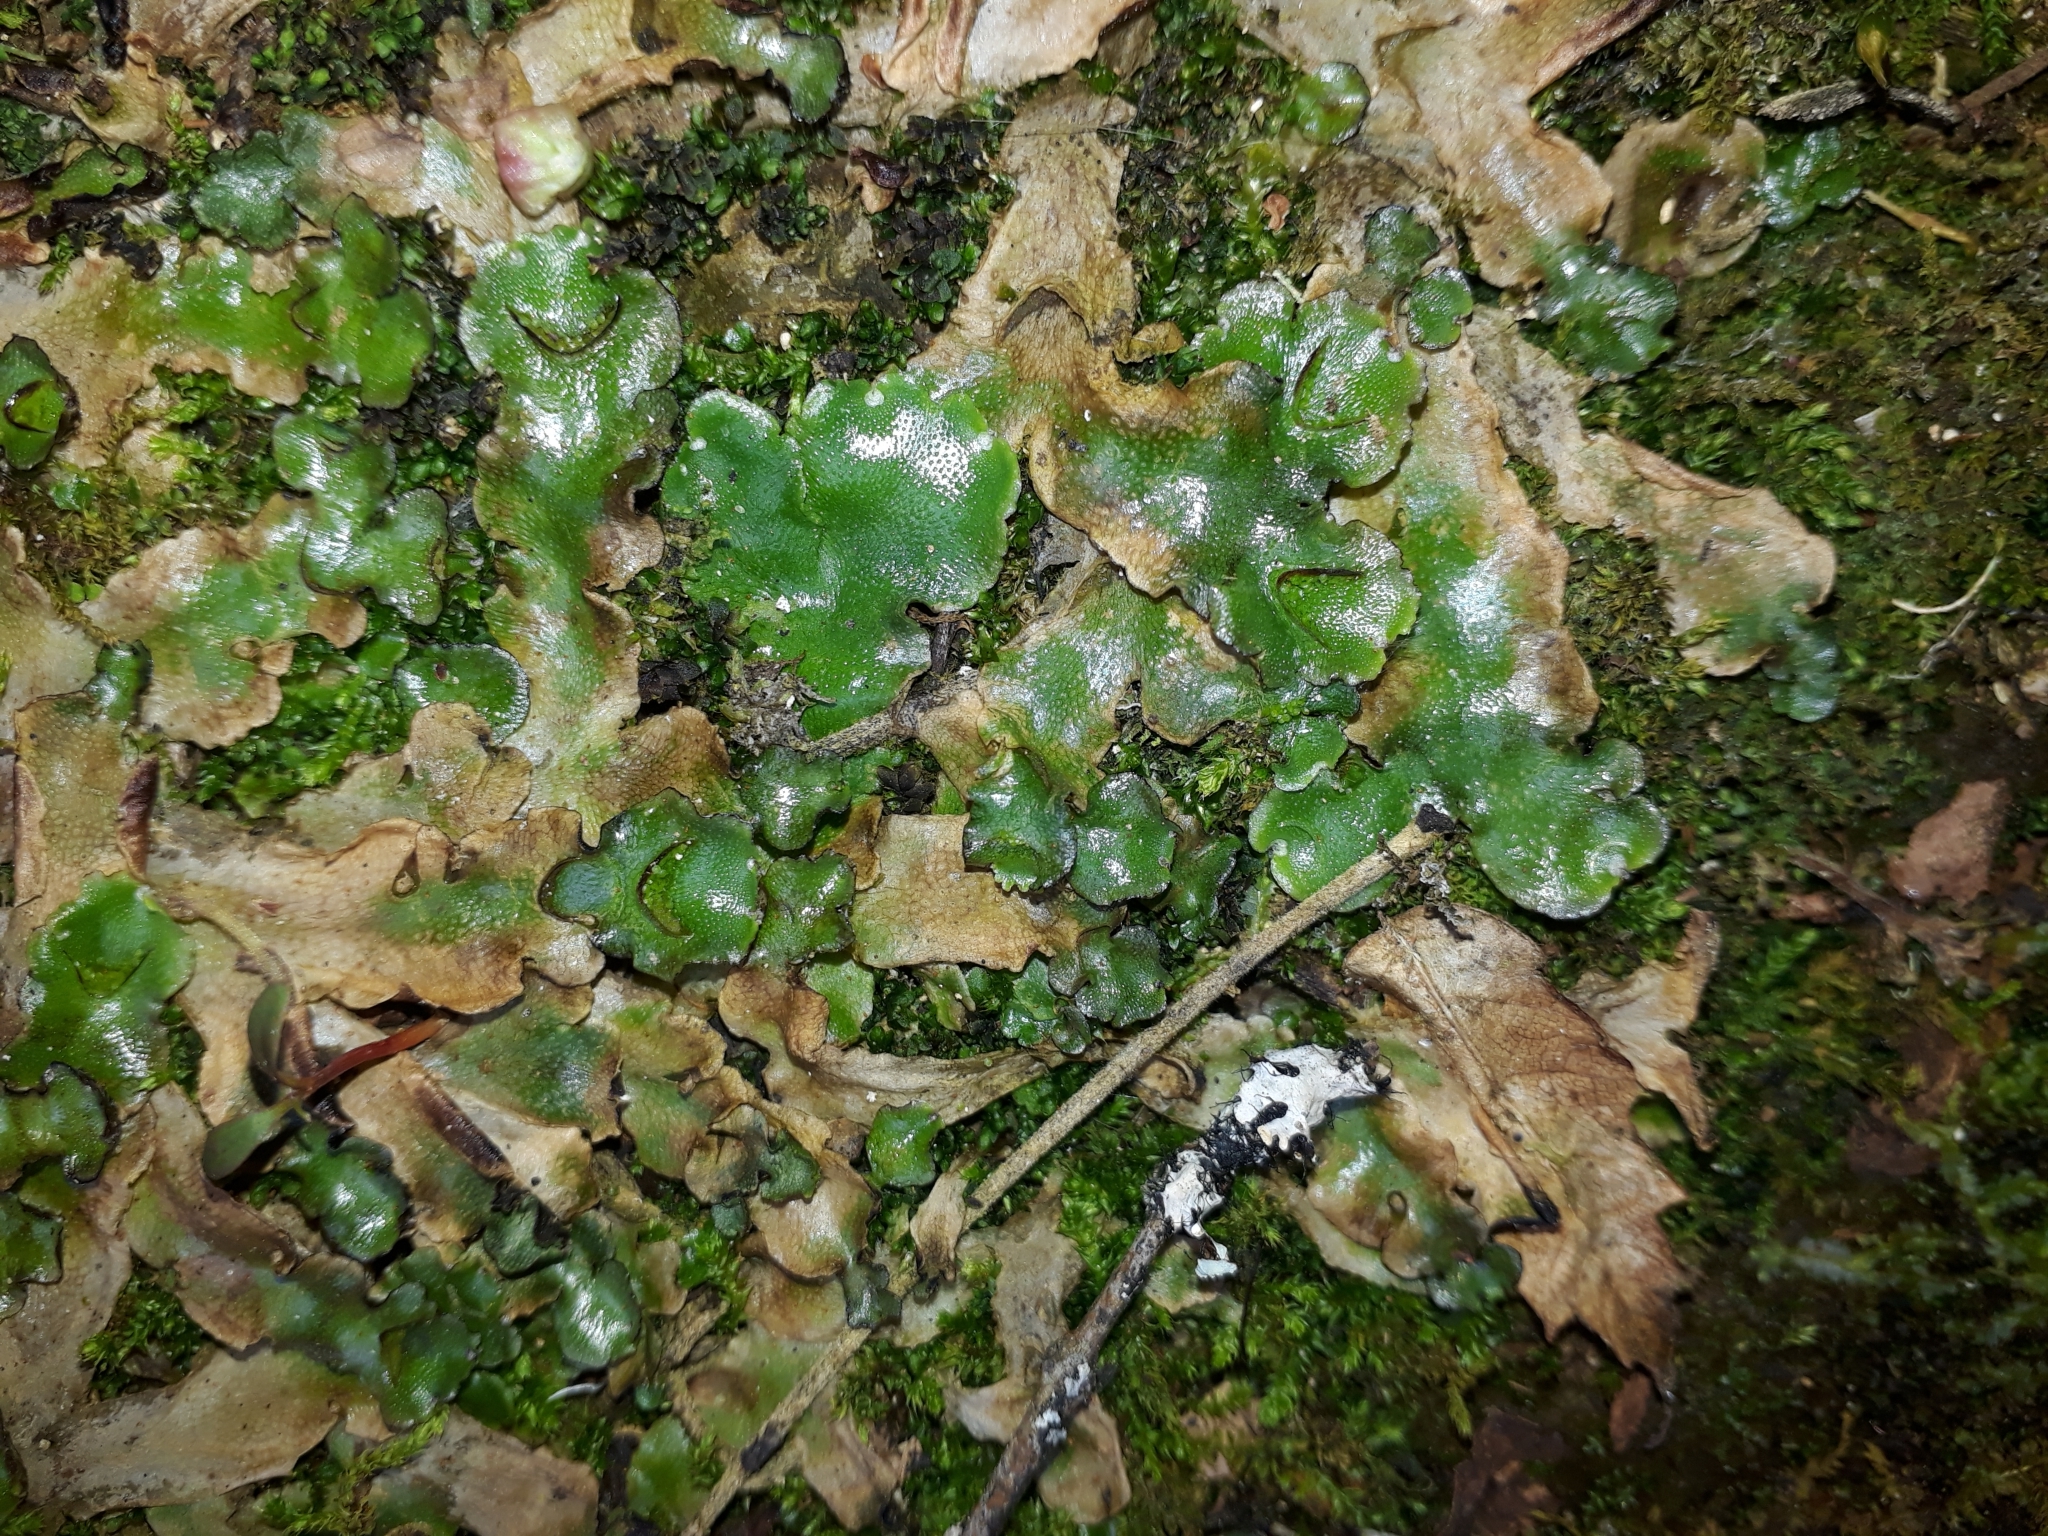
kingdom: Plantae
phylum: Marchantiophyta
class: Marchantiopsida
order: Lunulariales
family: Lunulariaceae
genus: Lunularia
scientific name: Lunularia cruciata
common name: Crescent-cup liverwort
